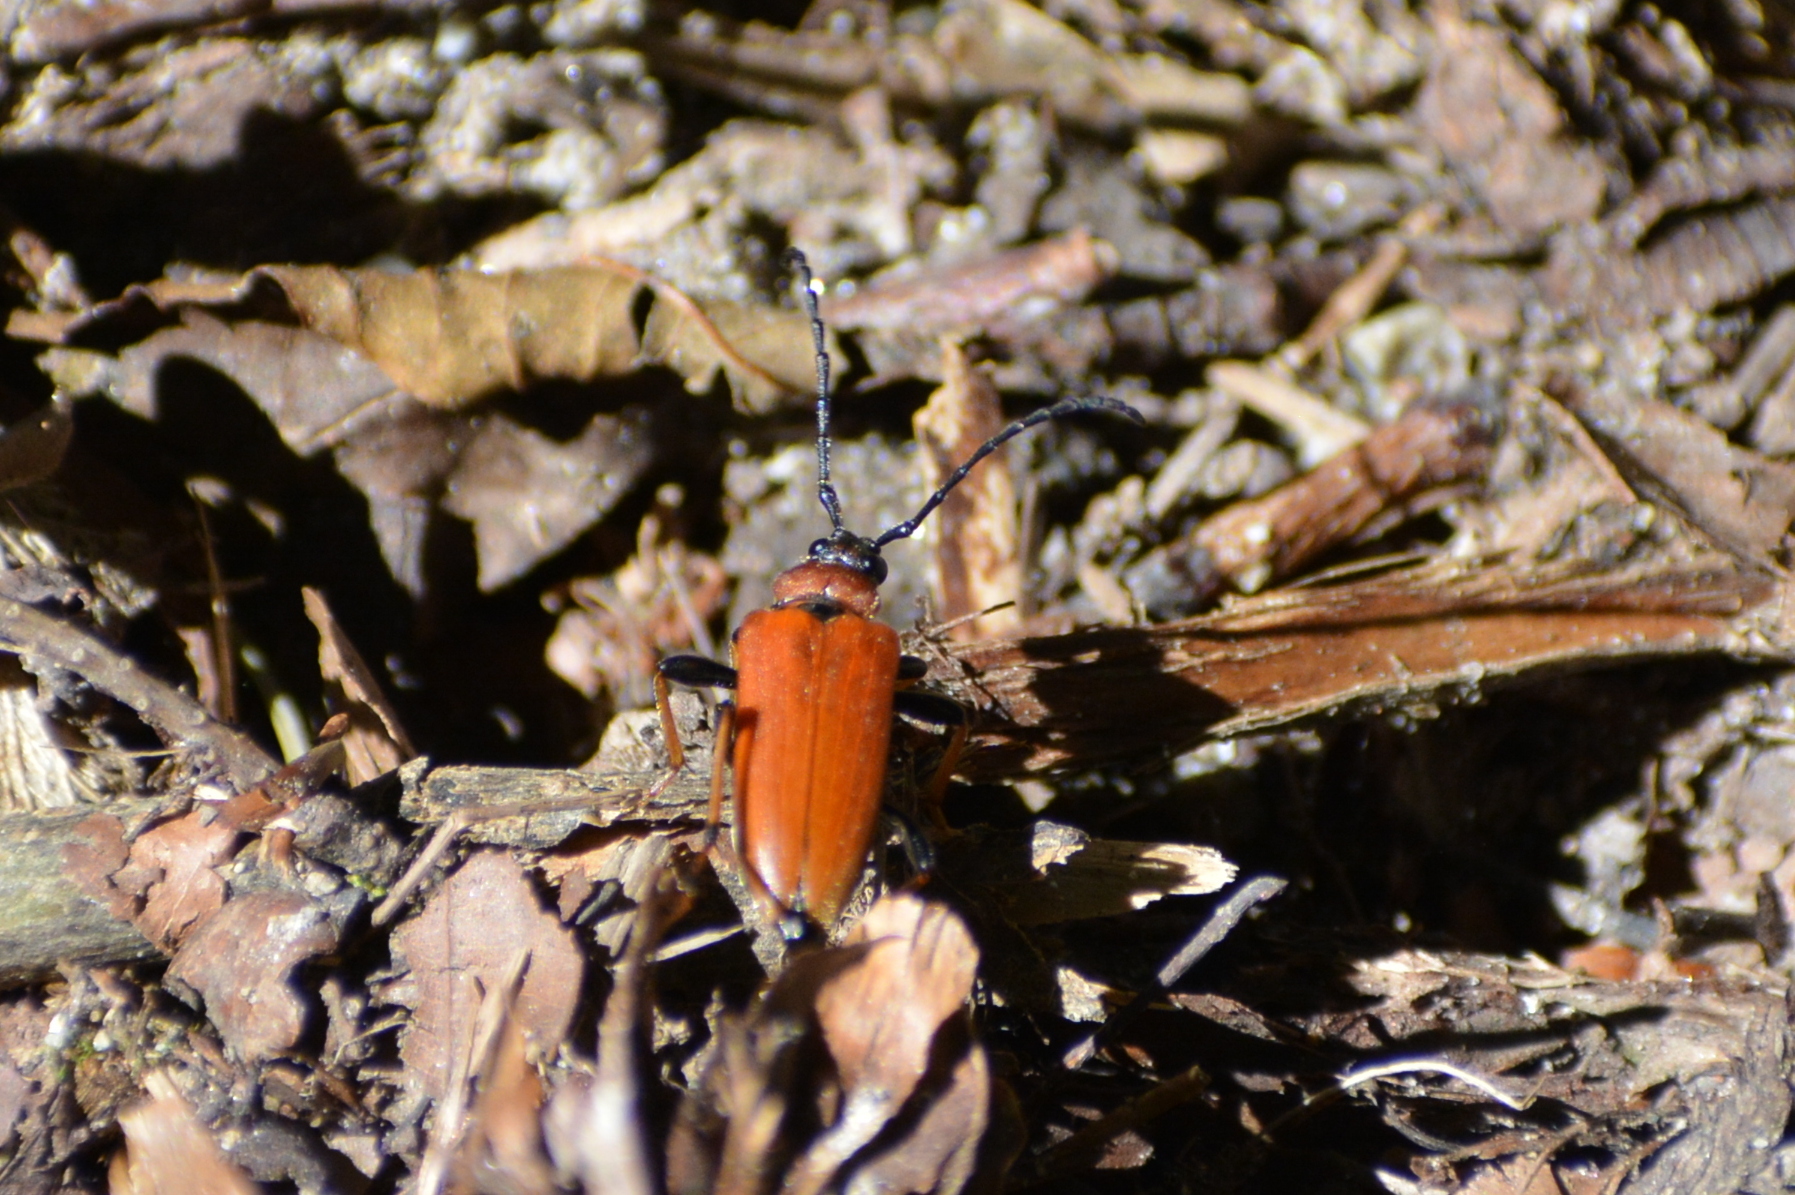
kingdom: Animalia
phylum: Arthropoda
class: Insecta
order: Coleoptera
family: Cerambycidae
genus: Stictoleptura
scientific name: Stictoleptura rubra
